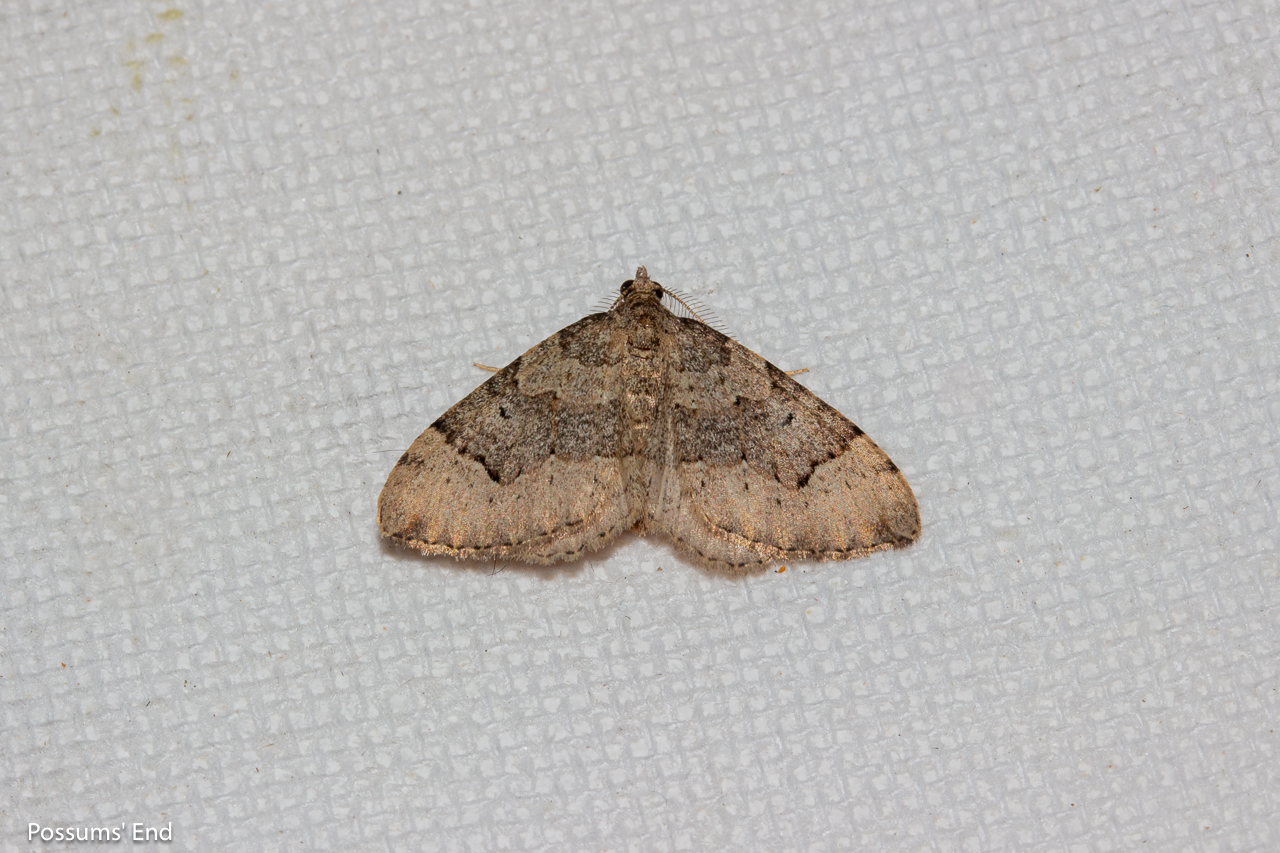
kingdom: Animalia
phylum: Arthropoda
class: Insecta
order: Lepidoptera
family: Geometridae
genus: Epyaxa
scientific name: Epyaxa rosearia
